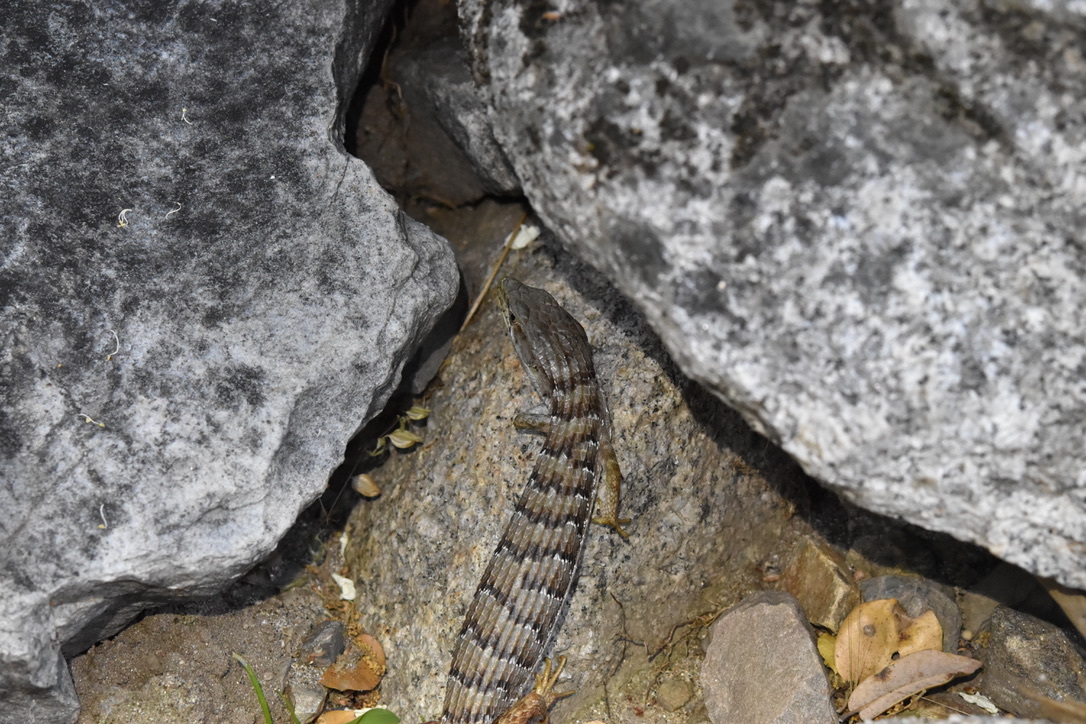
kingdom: Animalia
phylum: Chordata
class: Squamata
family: Anguidae
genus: Elgaria
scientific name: Elgaria multicarinata
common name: Southern alligator lizard
